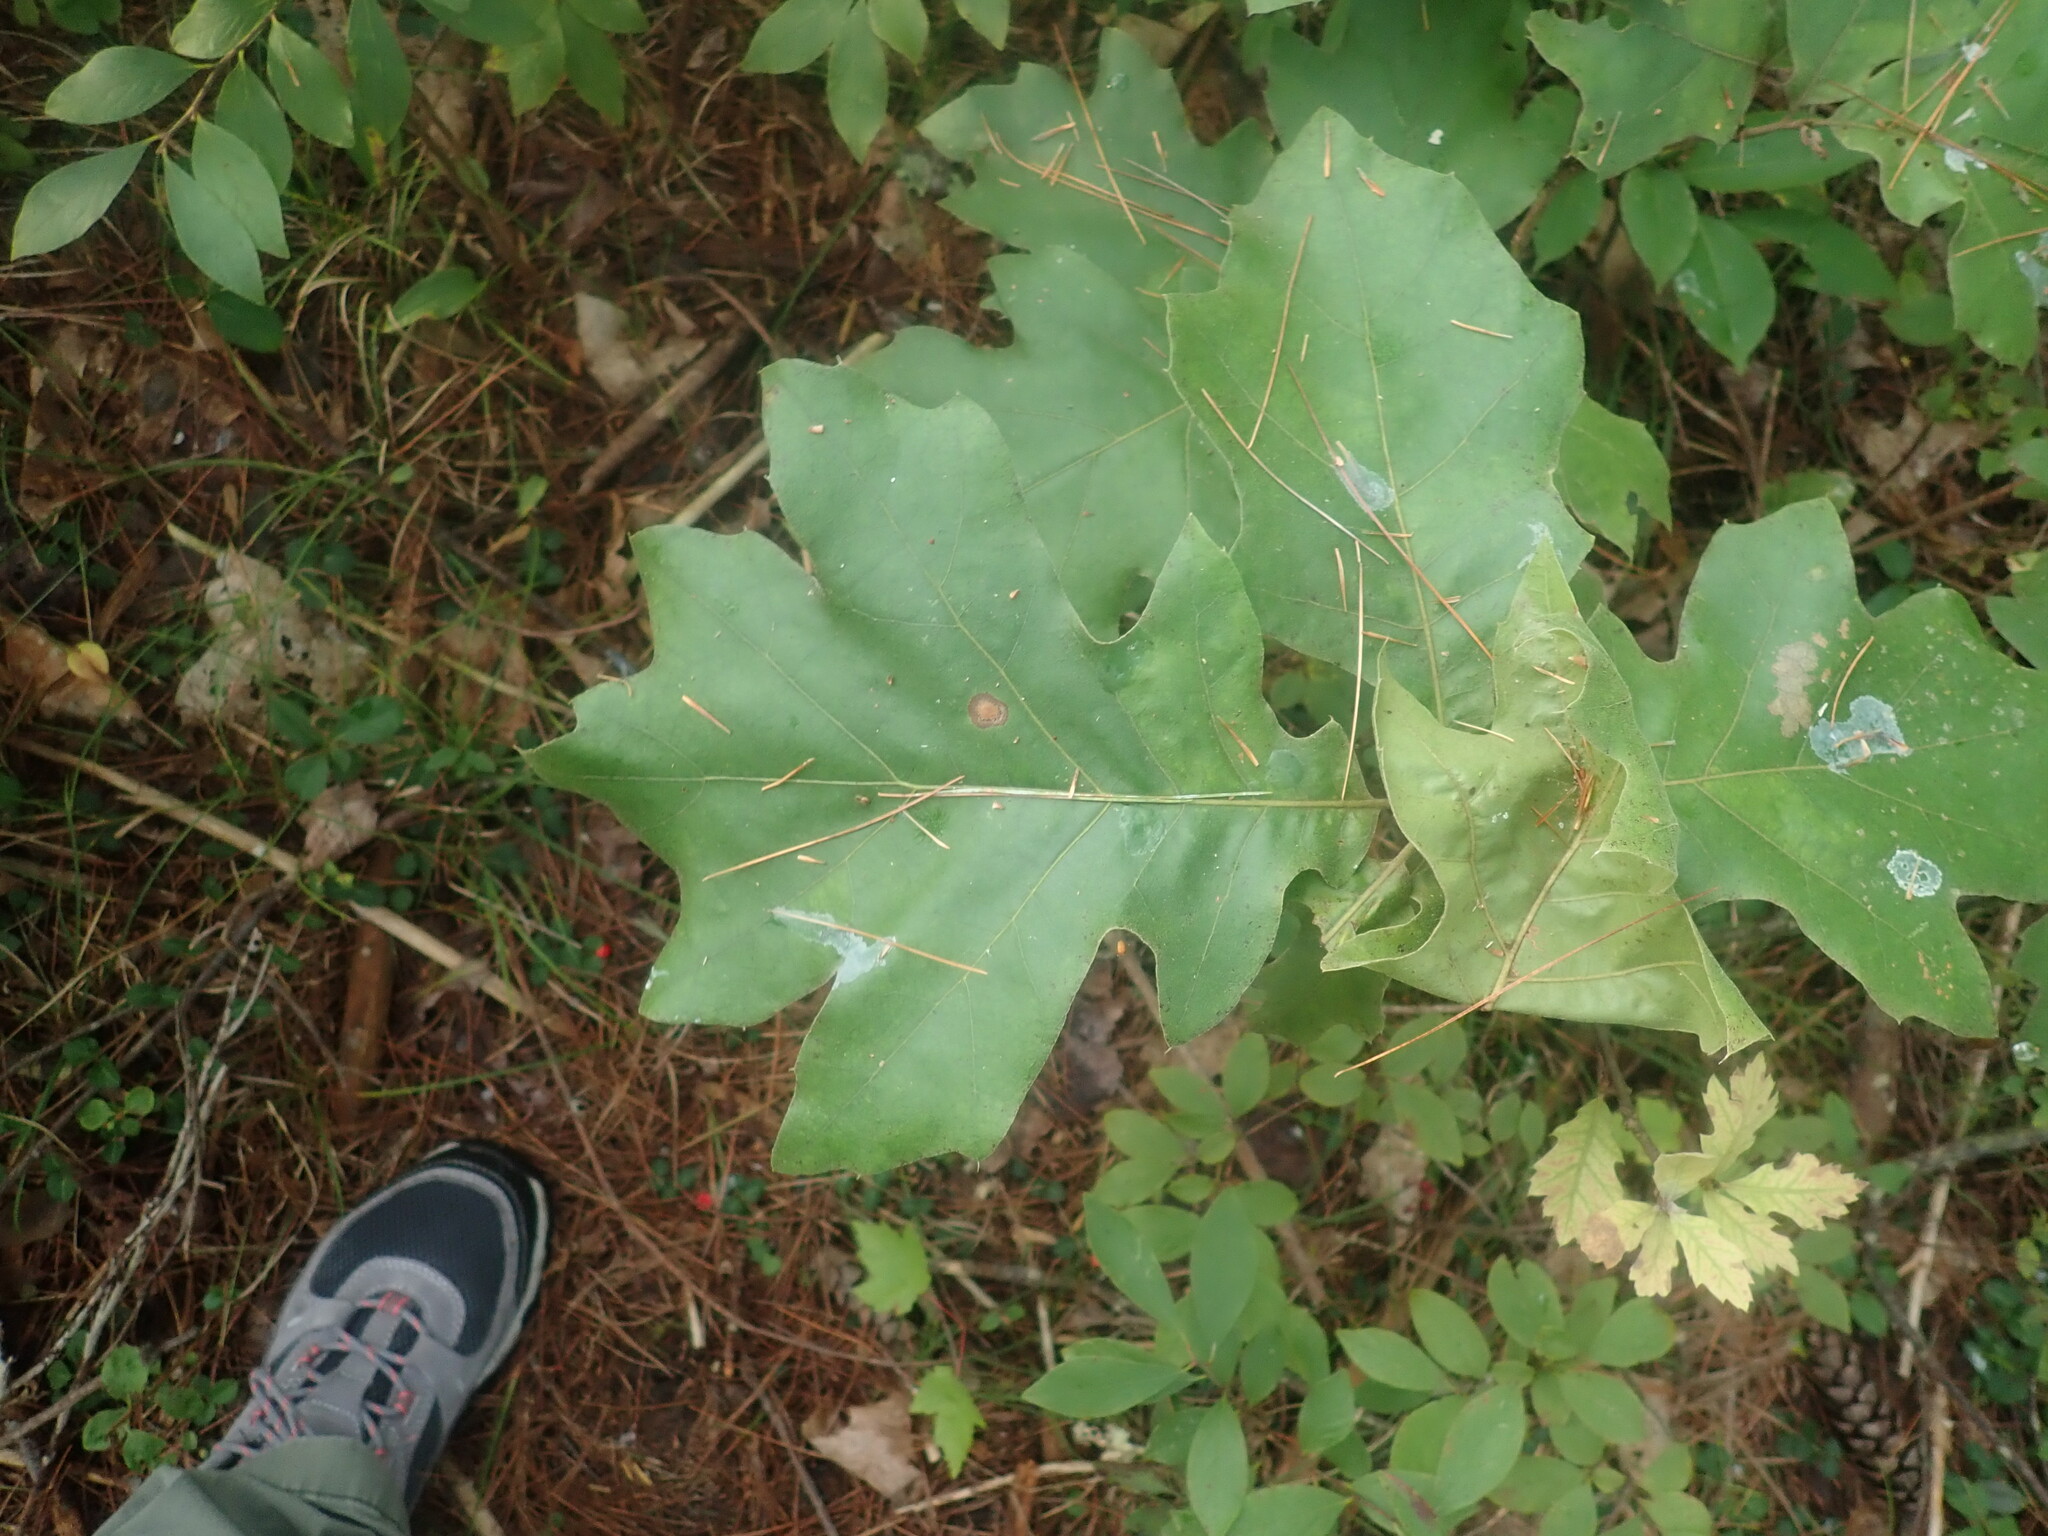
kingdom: Plantae
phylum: Tracheophyta
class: Magnoliopsida
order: Fagales
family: Fagaceae
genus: Quercus
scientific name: Quercus velutina
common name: Black oak
